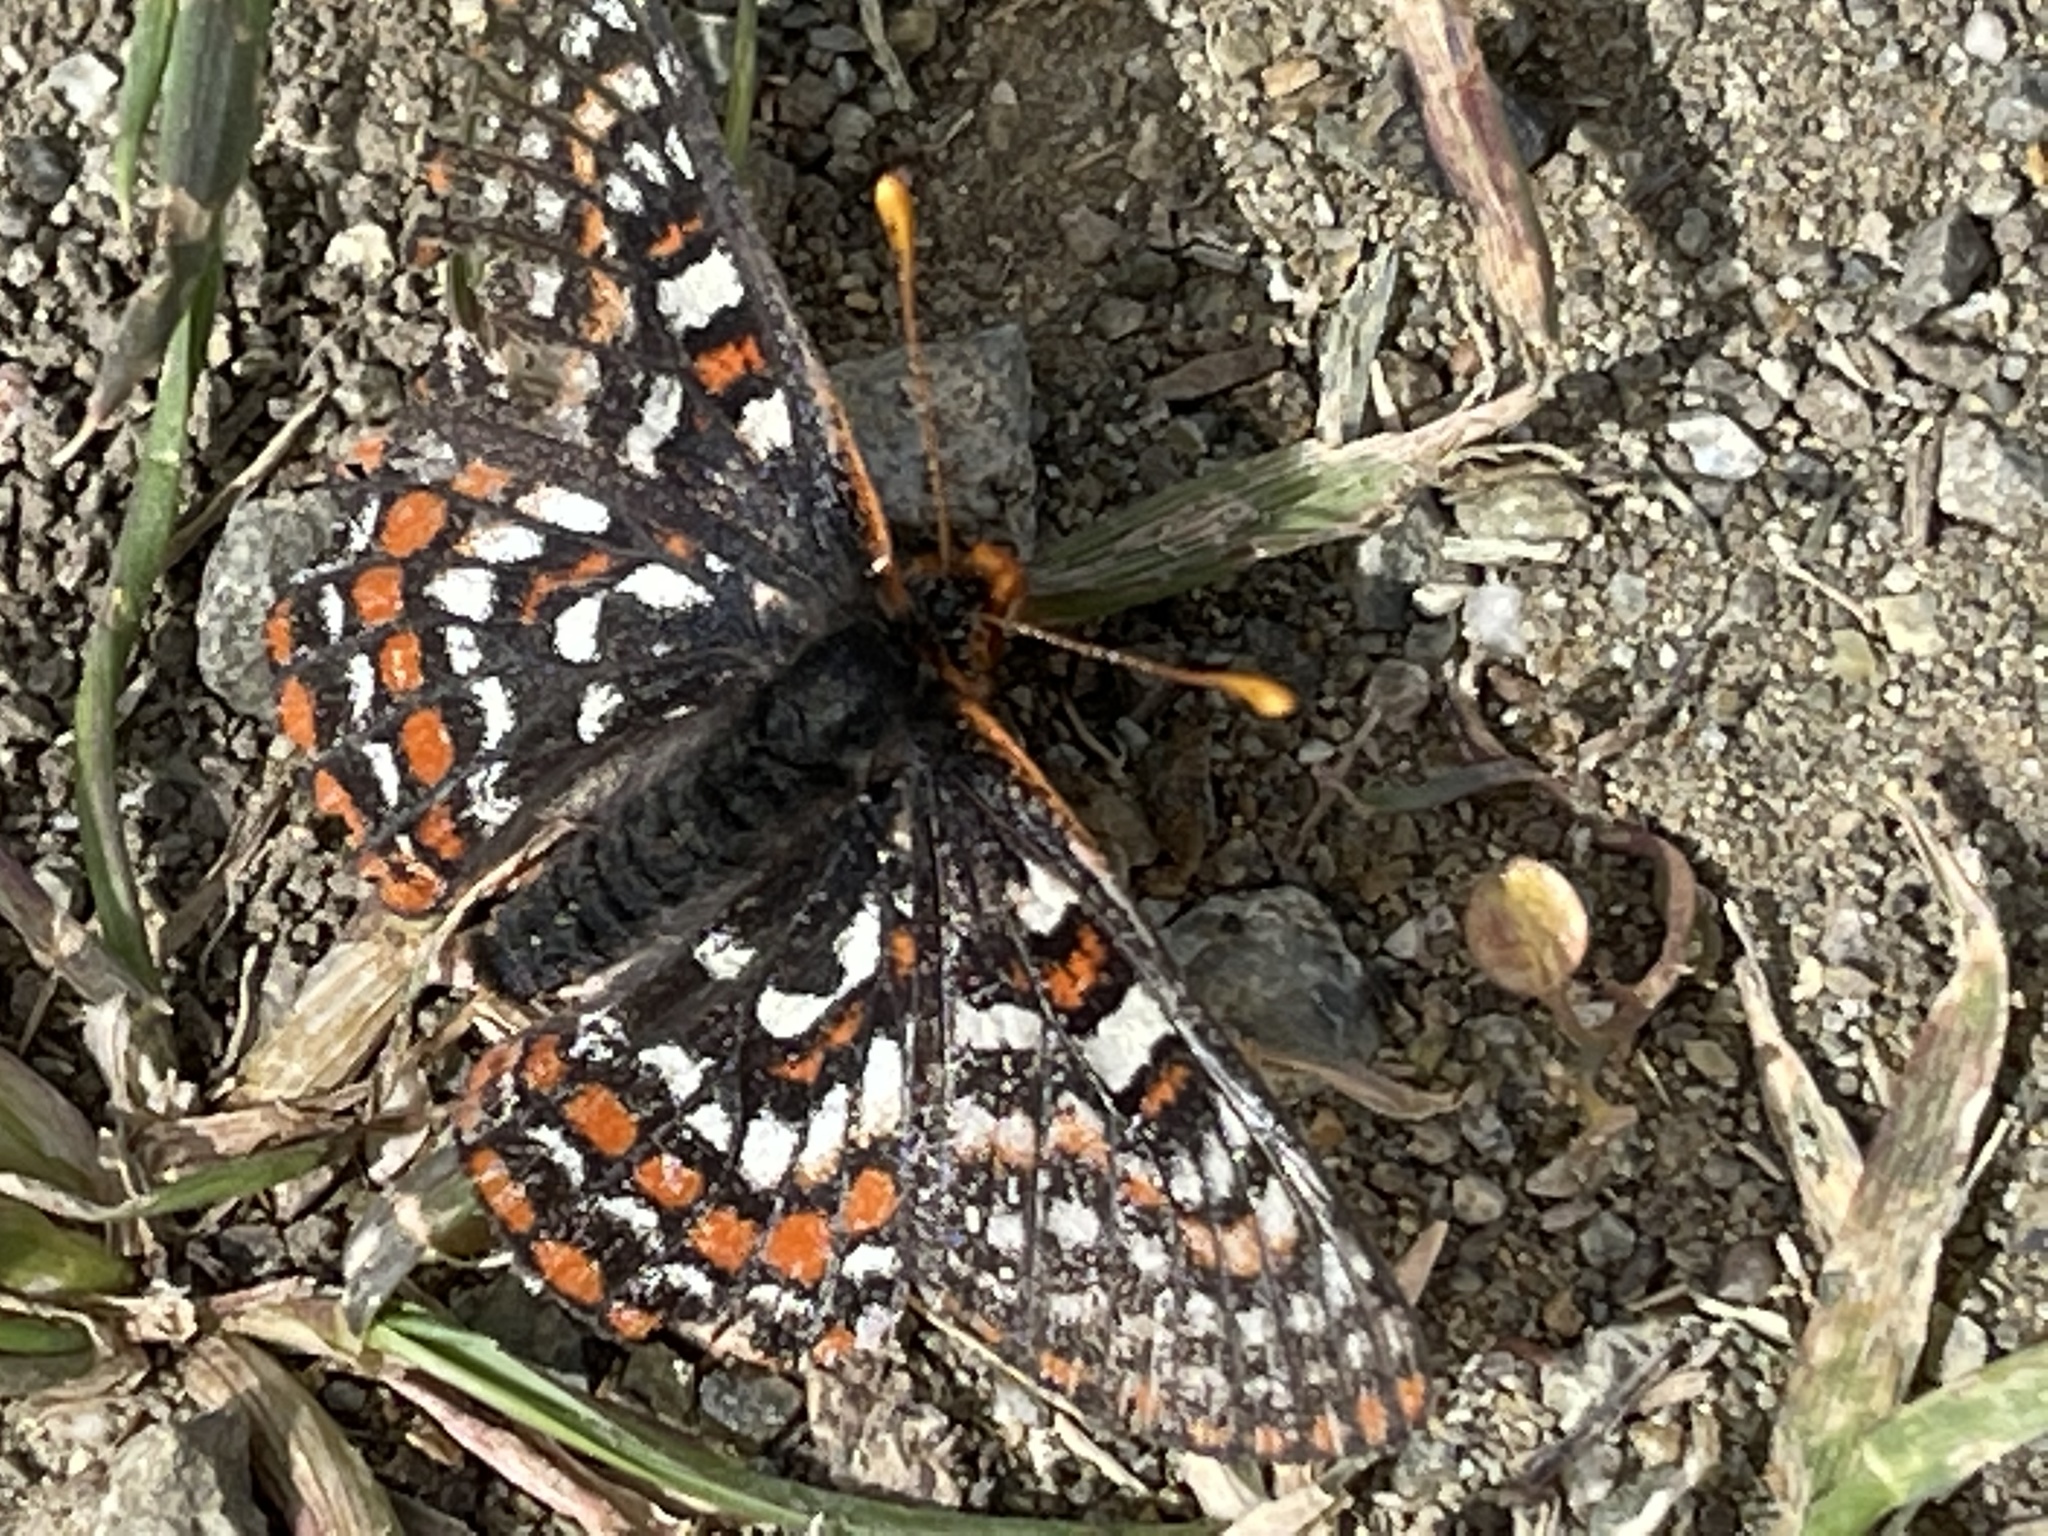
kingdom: Animalia
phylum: Arthropoda
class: Insecta
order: Lepidoptera
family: Nymphalidae
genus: Occidryas
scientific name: Occidryas editha
